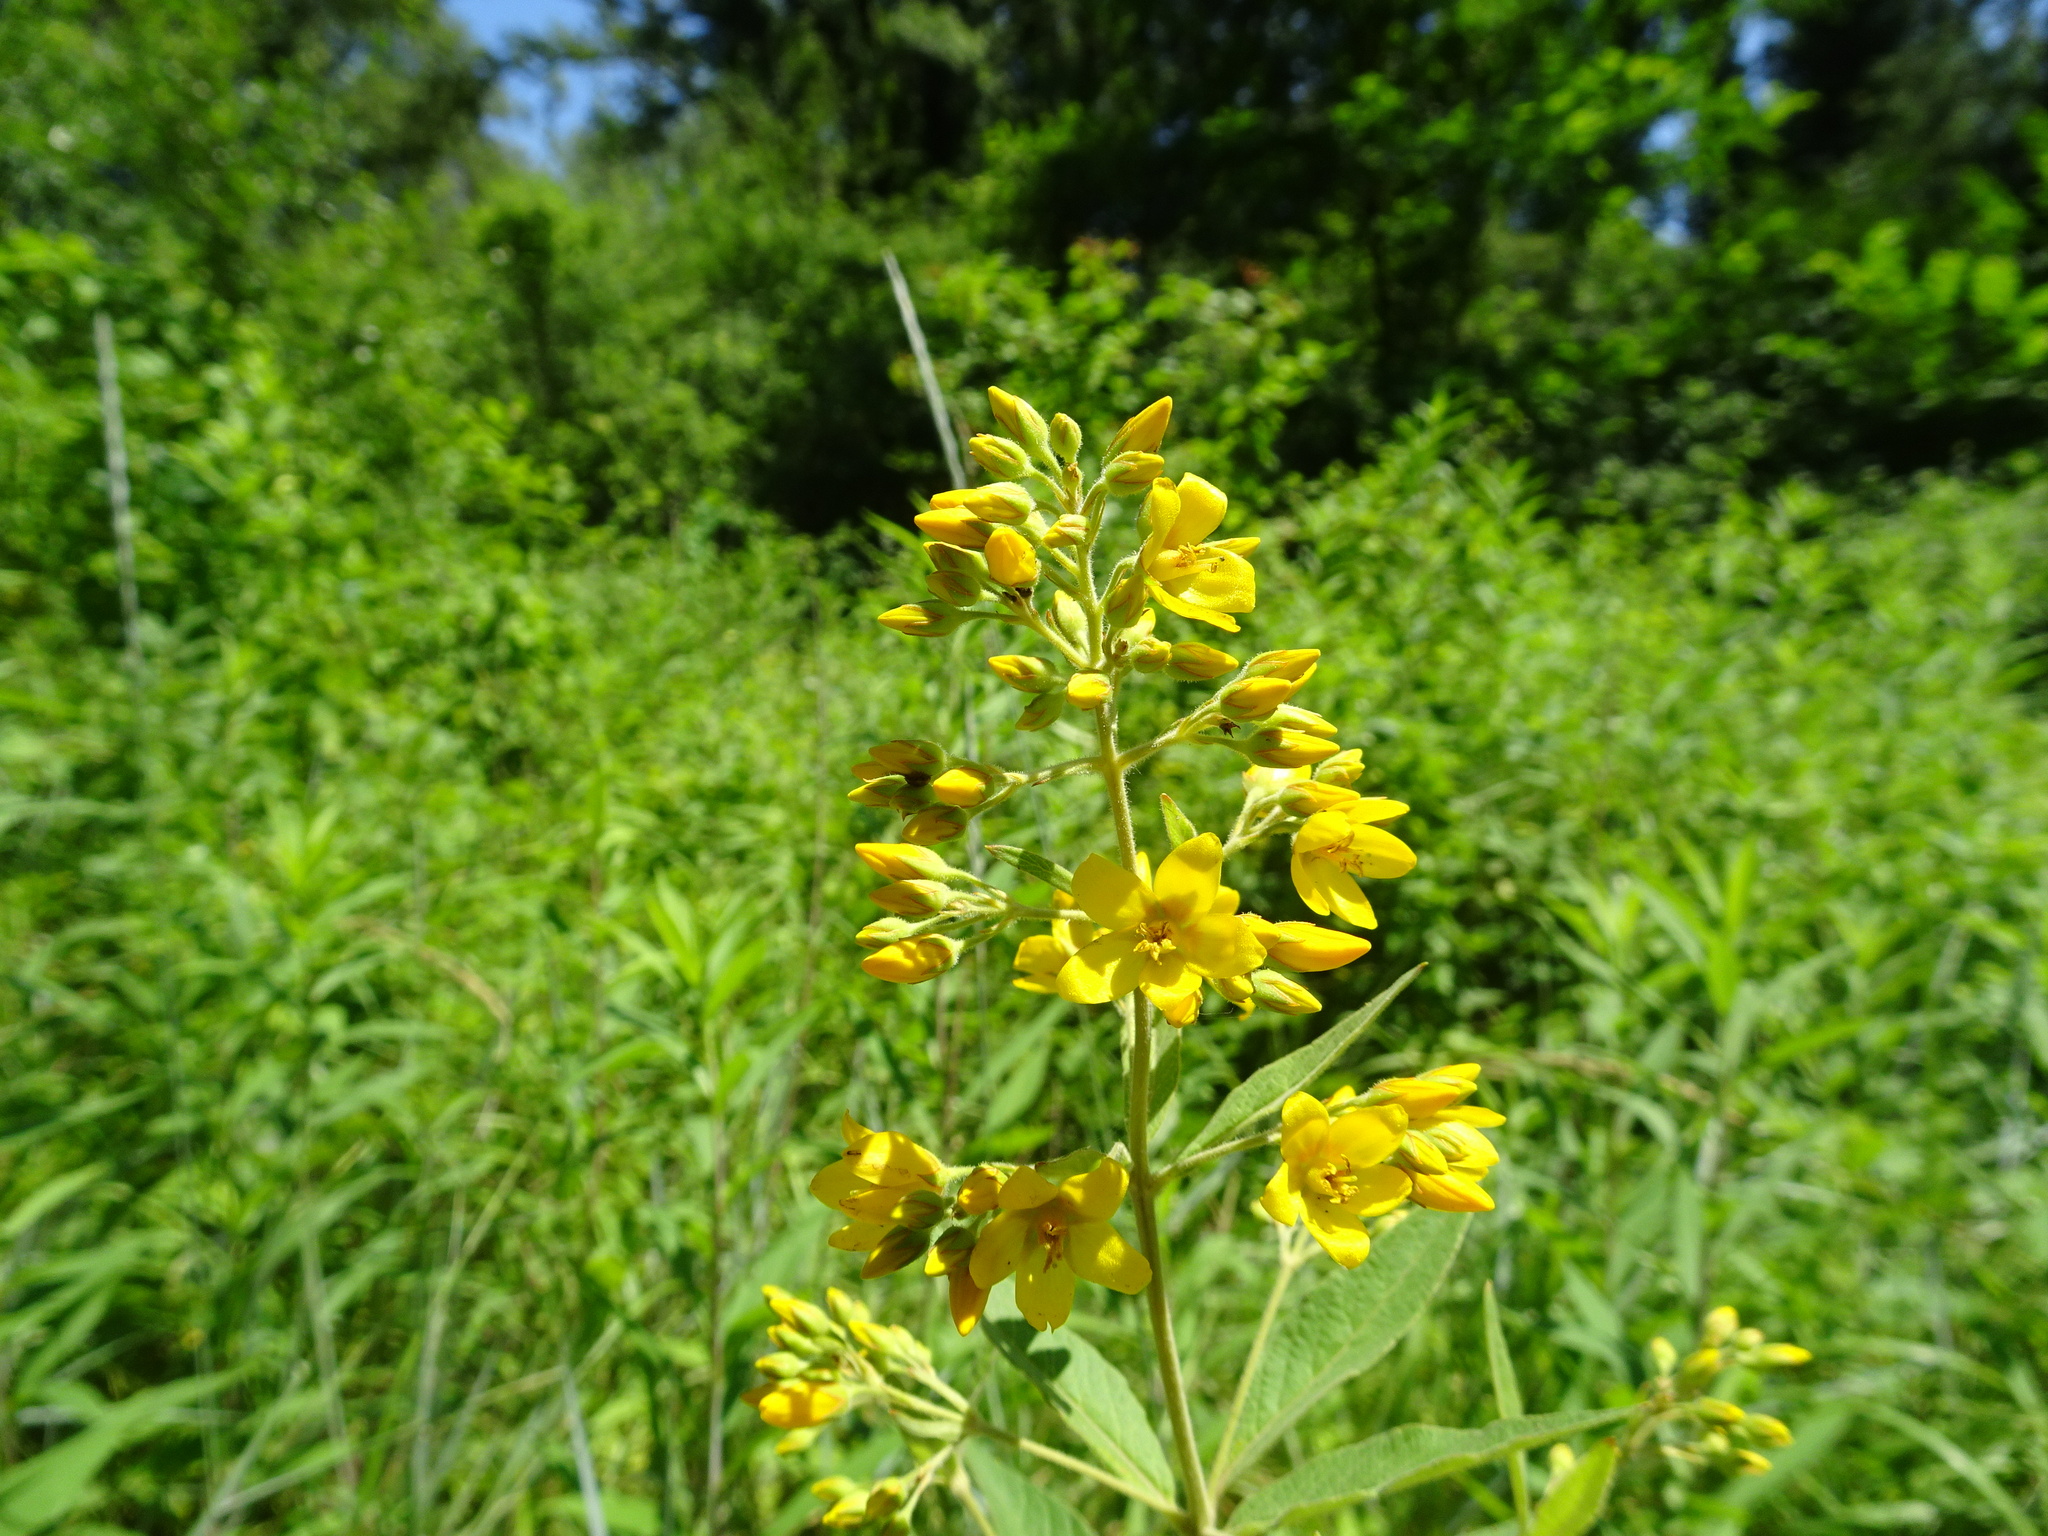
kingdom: Plantae
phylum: Tracheophyta
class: Magnoliopsida
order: Ericales
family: Primulaceae
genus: Lysimachia
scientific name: Lysimachia vulgaris
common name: Yellow loosestrife
